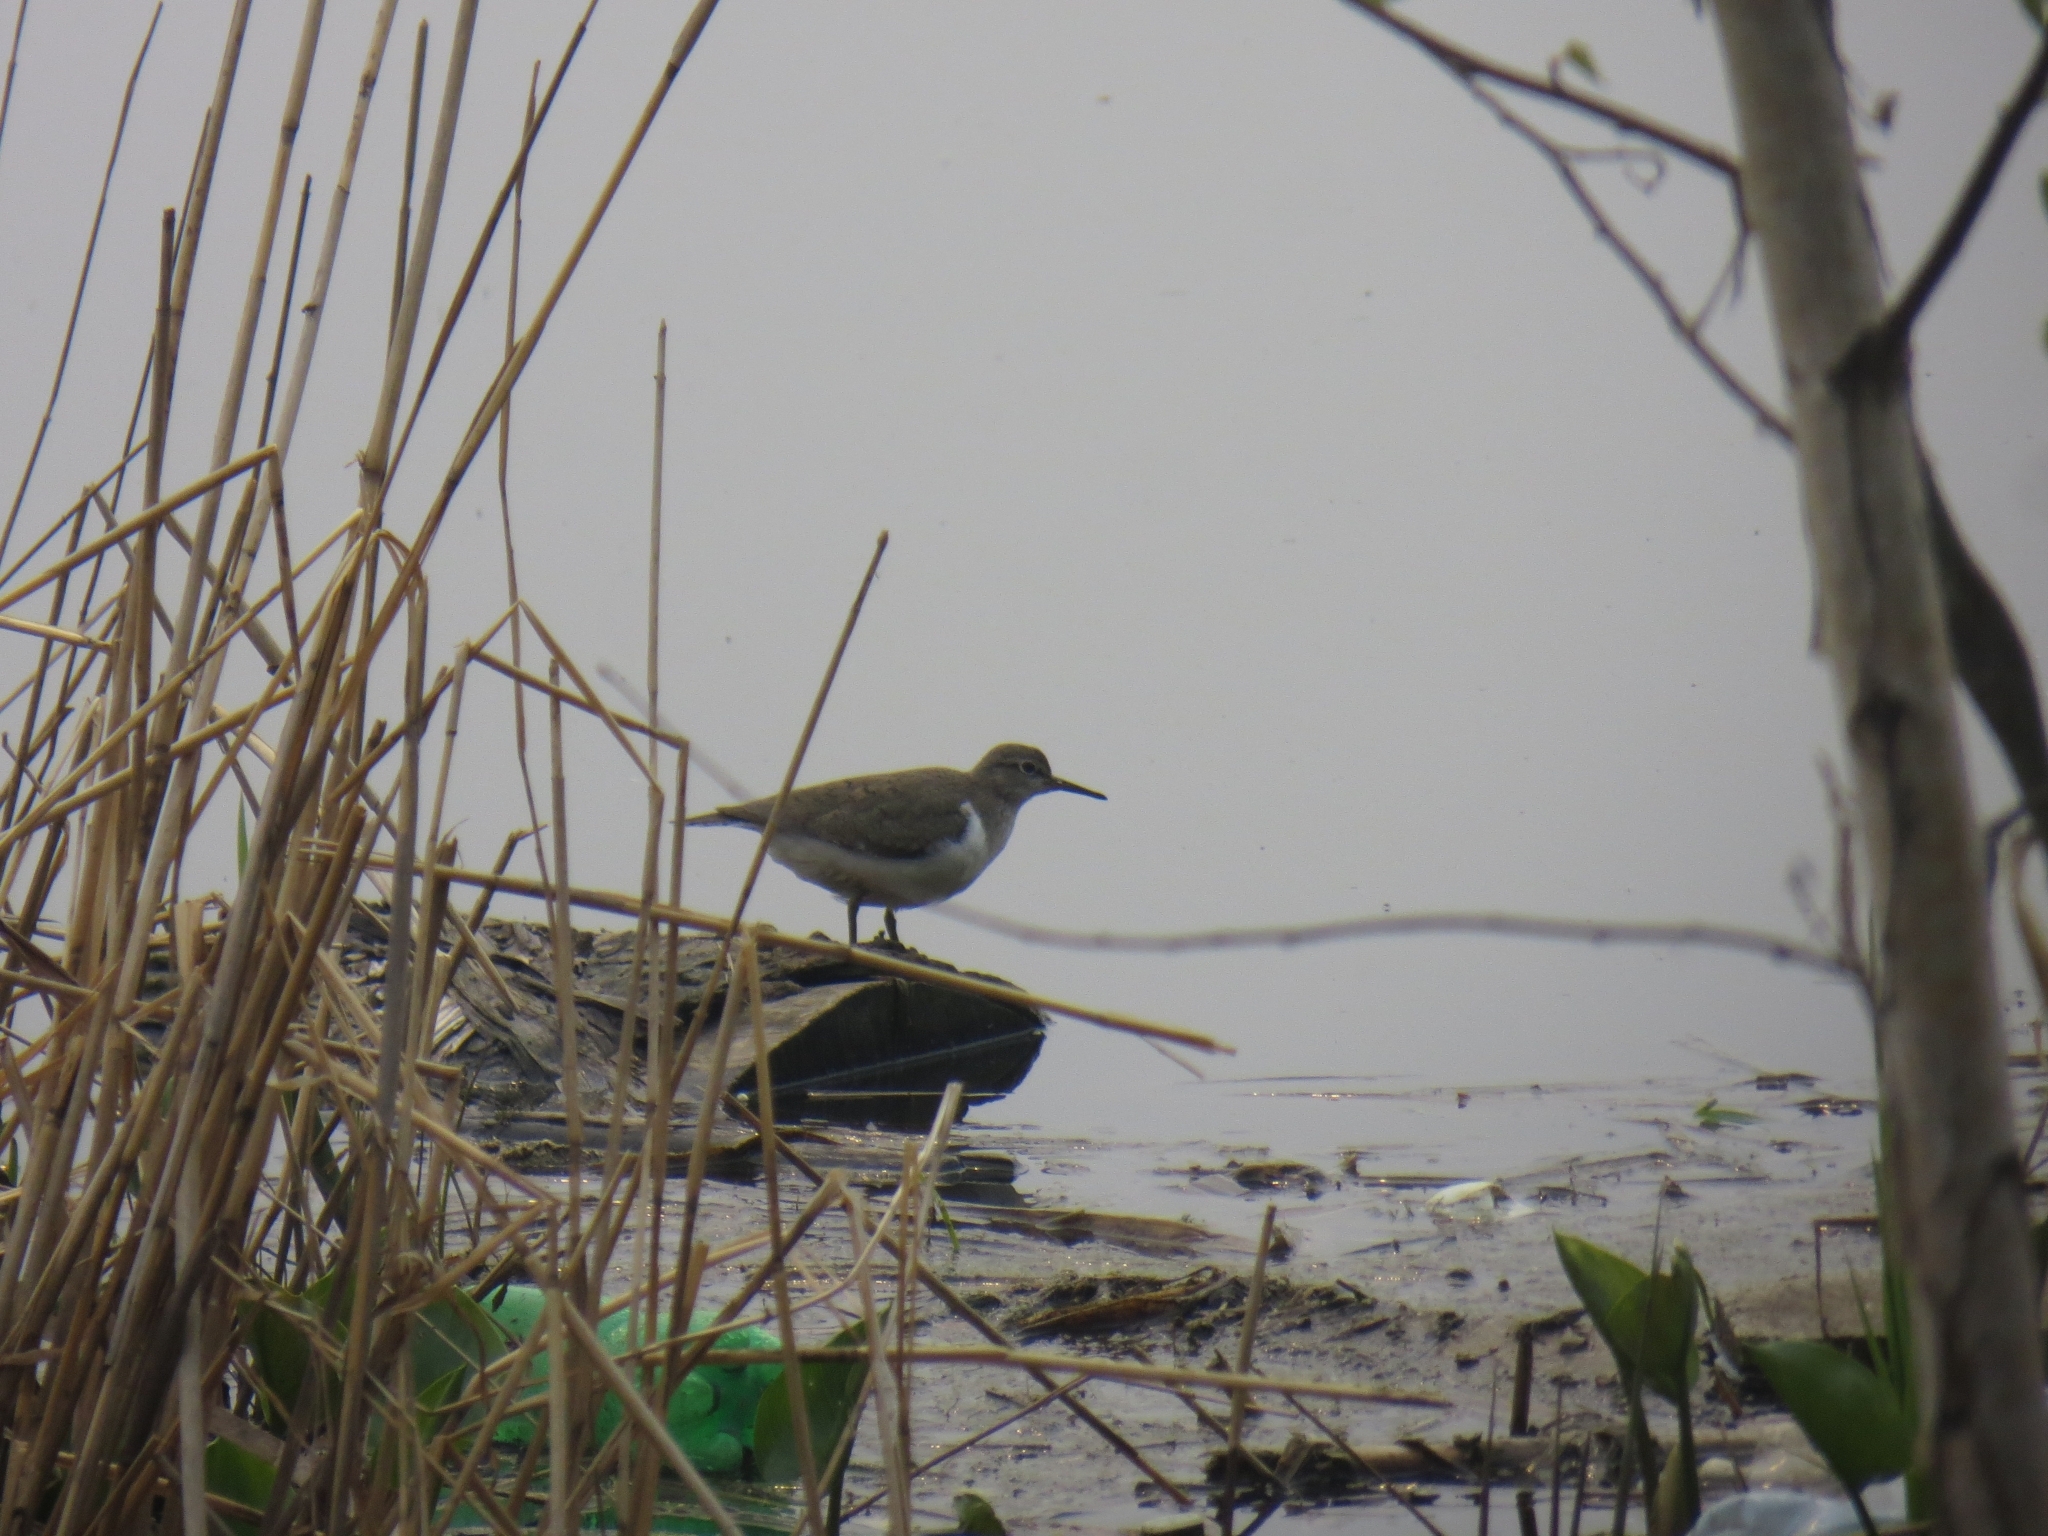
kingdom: Animalia
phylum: Chordata
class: Aves
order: Charadriiformes
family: Scolopacidae
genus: Actitis
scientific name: Actitis hypoleucos
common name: Common sandpiper
